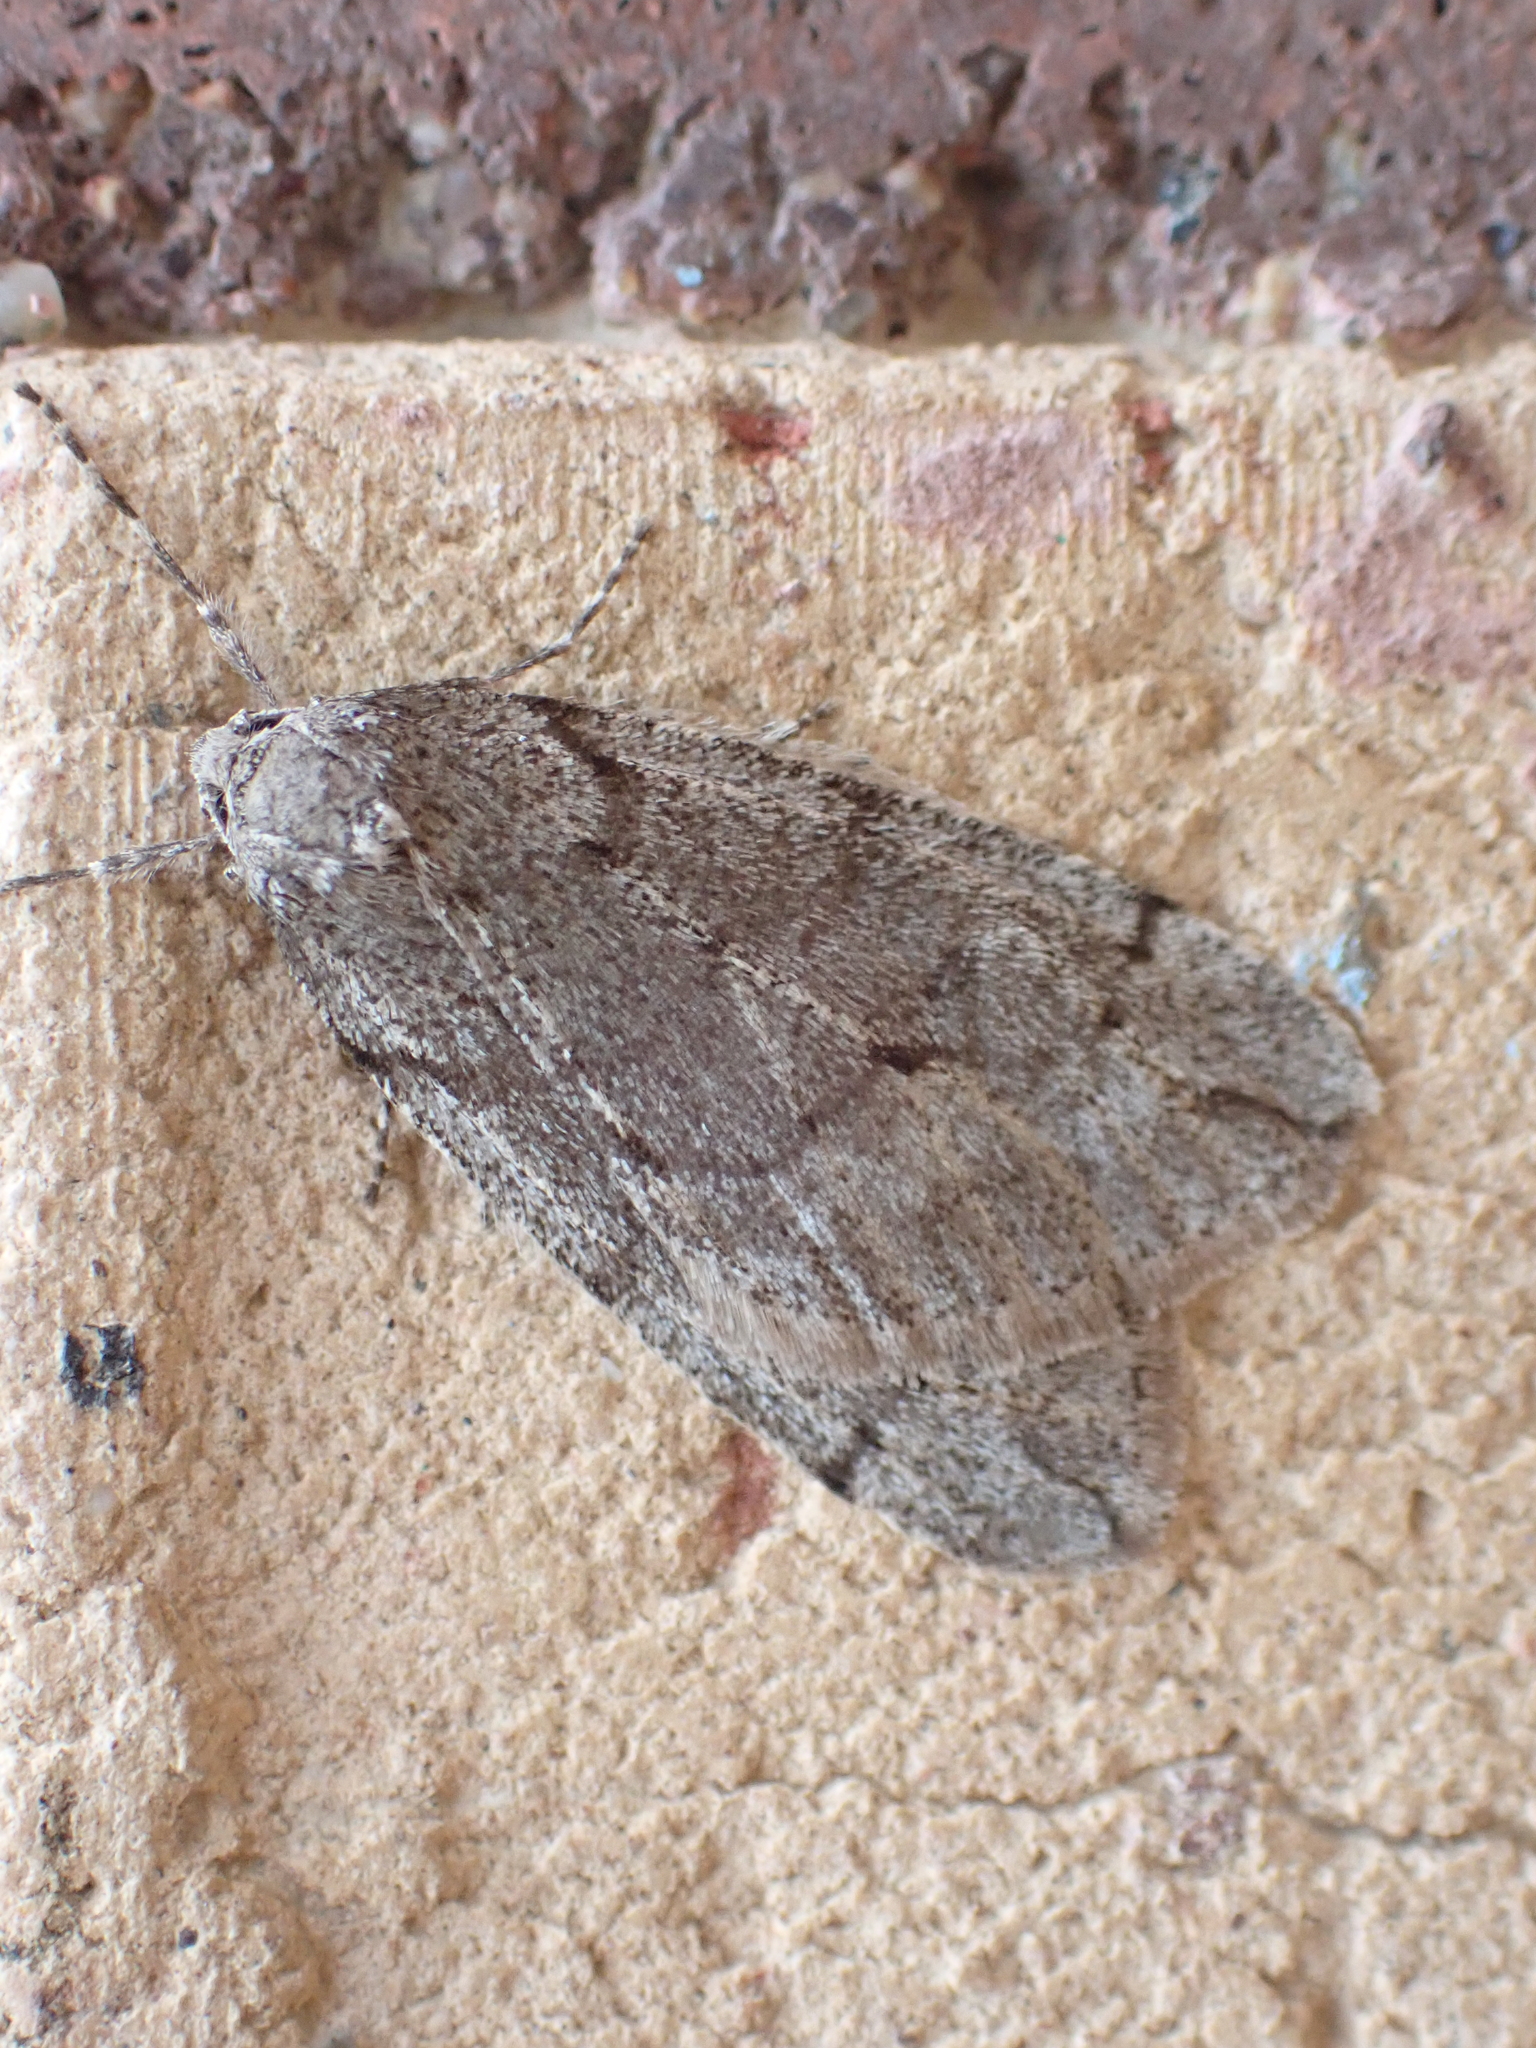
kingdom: Animalia
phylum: Arthropoda
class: Insecta
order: Lepidoptera
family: Geometridae
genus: Paleacrita
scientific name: Paleacrita vernata
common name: Spring cankerworm
